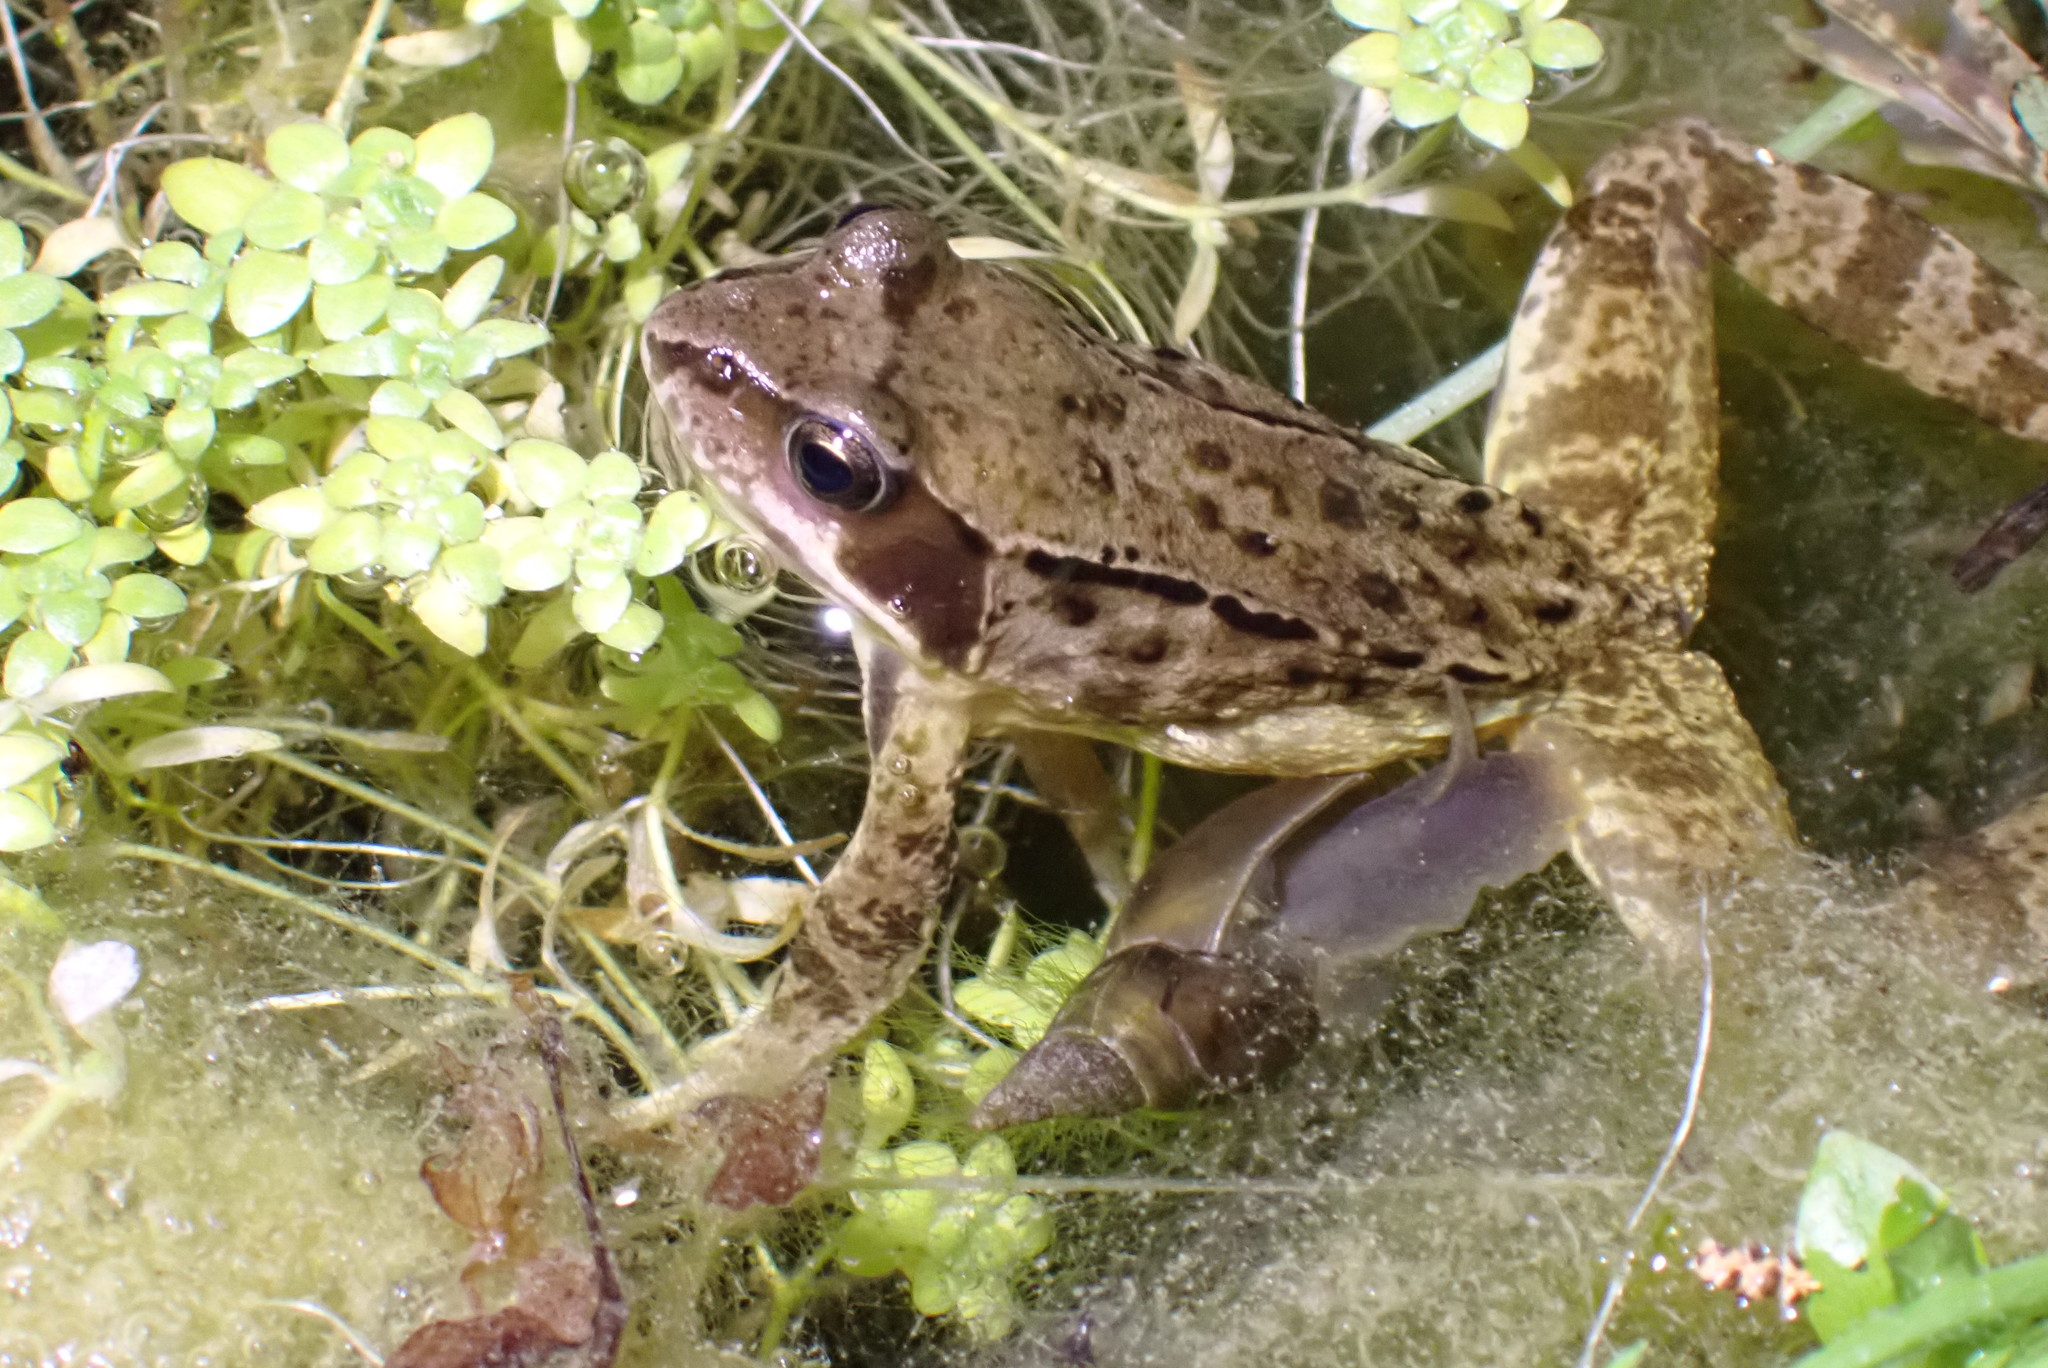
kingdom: Animalia
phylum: Chordata
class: Amphibia
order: Anura
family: Ranidae
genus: Rana
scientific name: Rana temporaria
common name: Common frog
